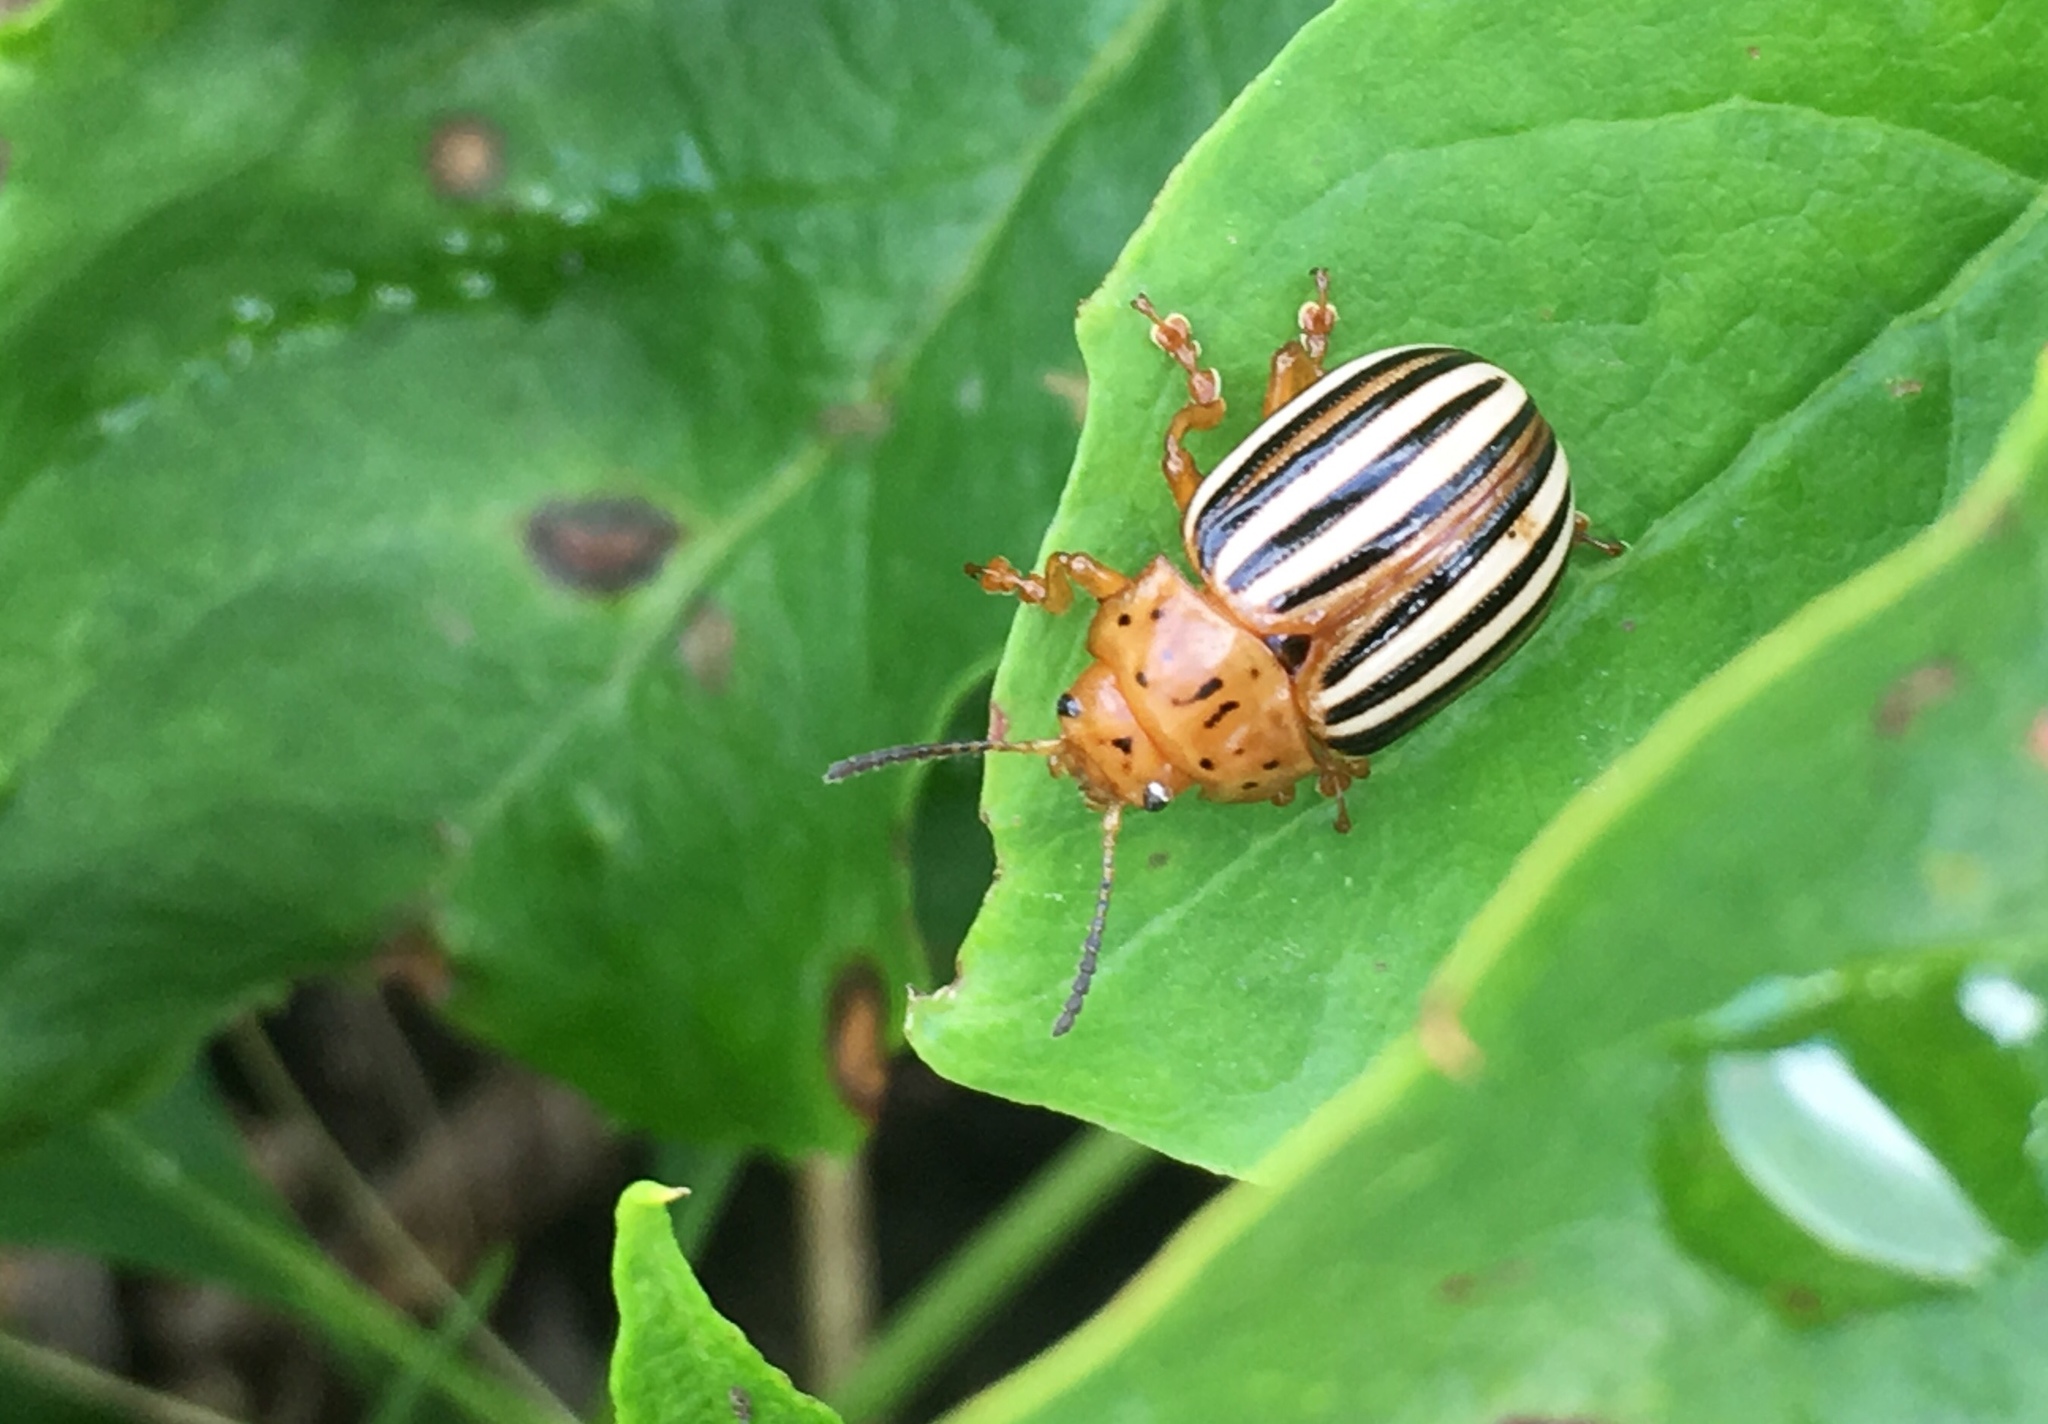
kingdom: Animalia
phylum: Arthropoda
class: Insecta
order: Coleoptera
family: Chrysomelidae
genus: Leptinotarsa
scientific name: Leptinotarsa juncta
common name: False potato beetle
